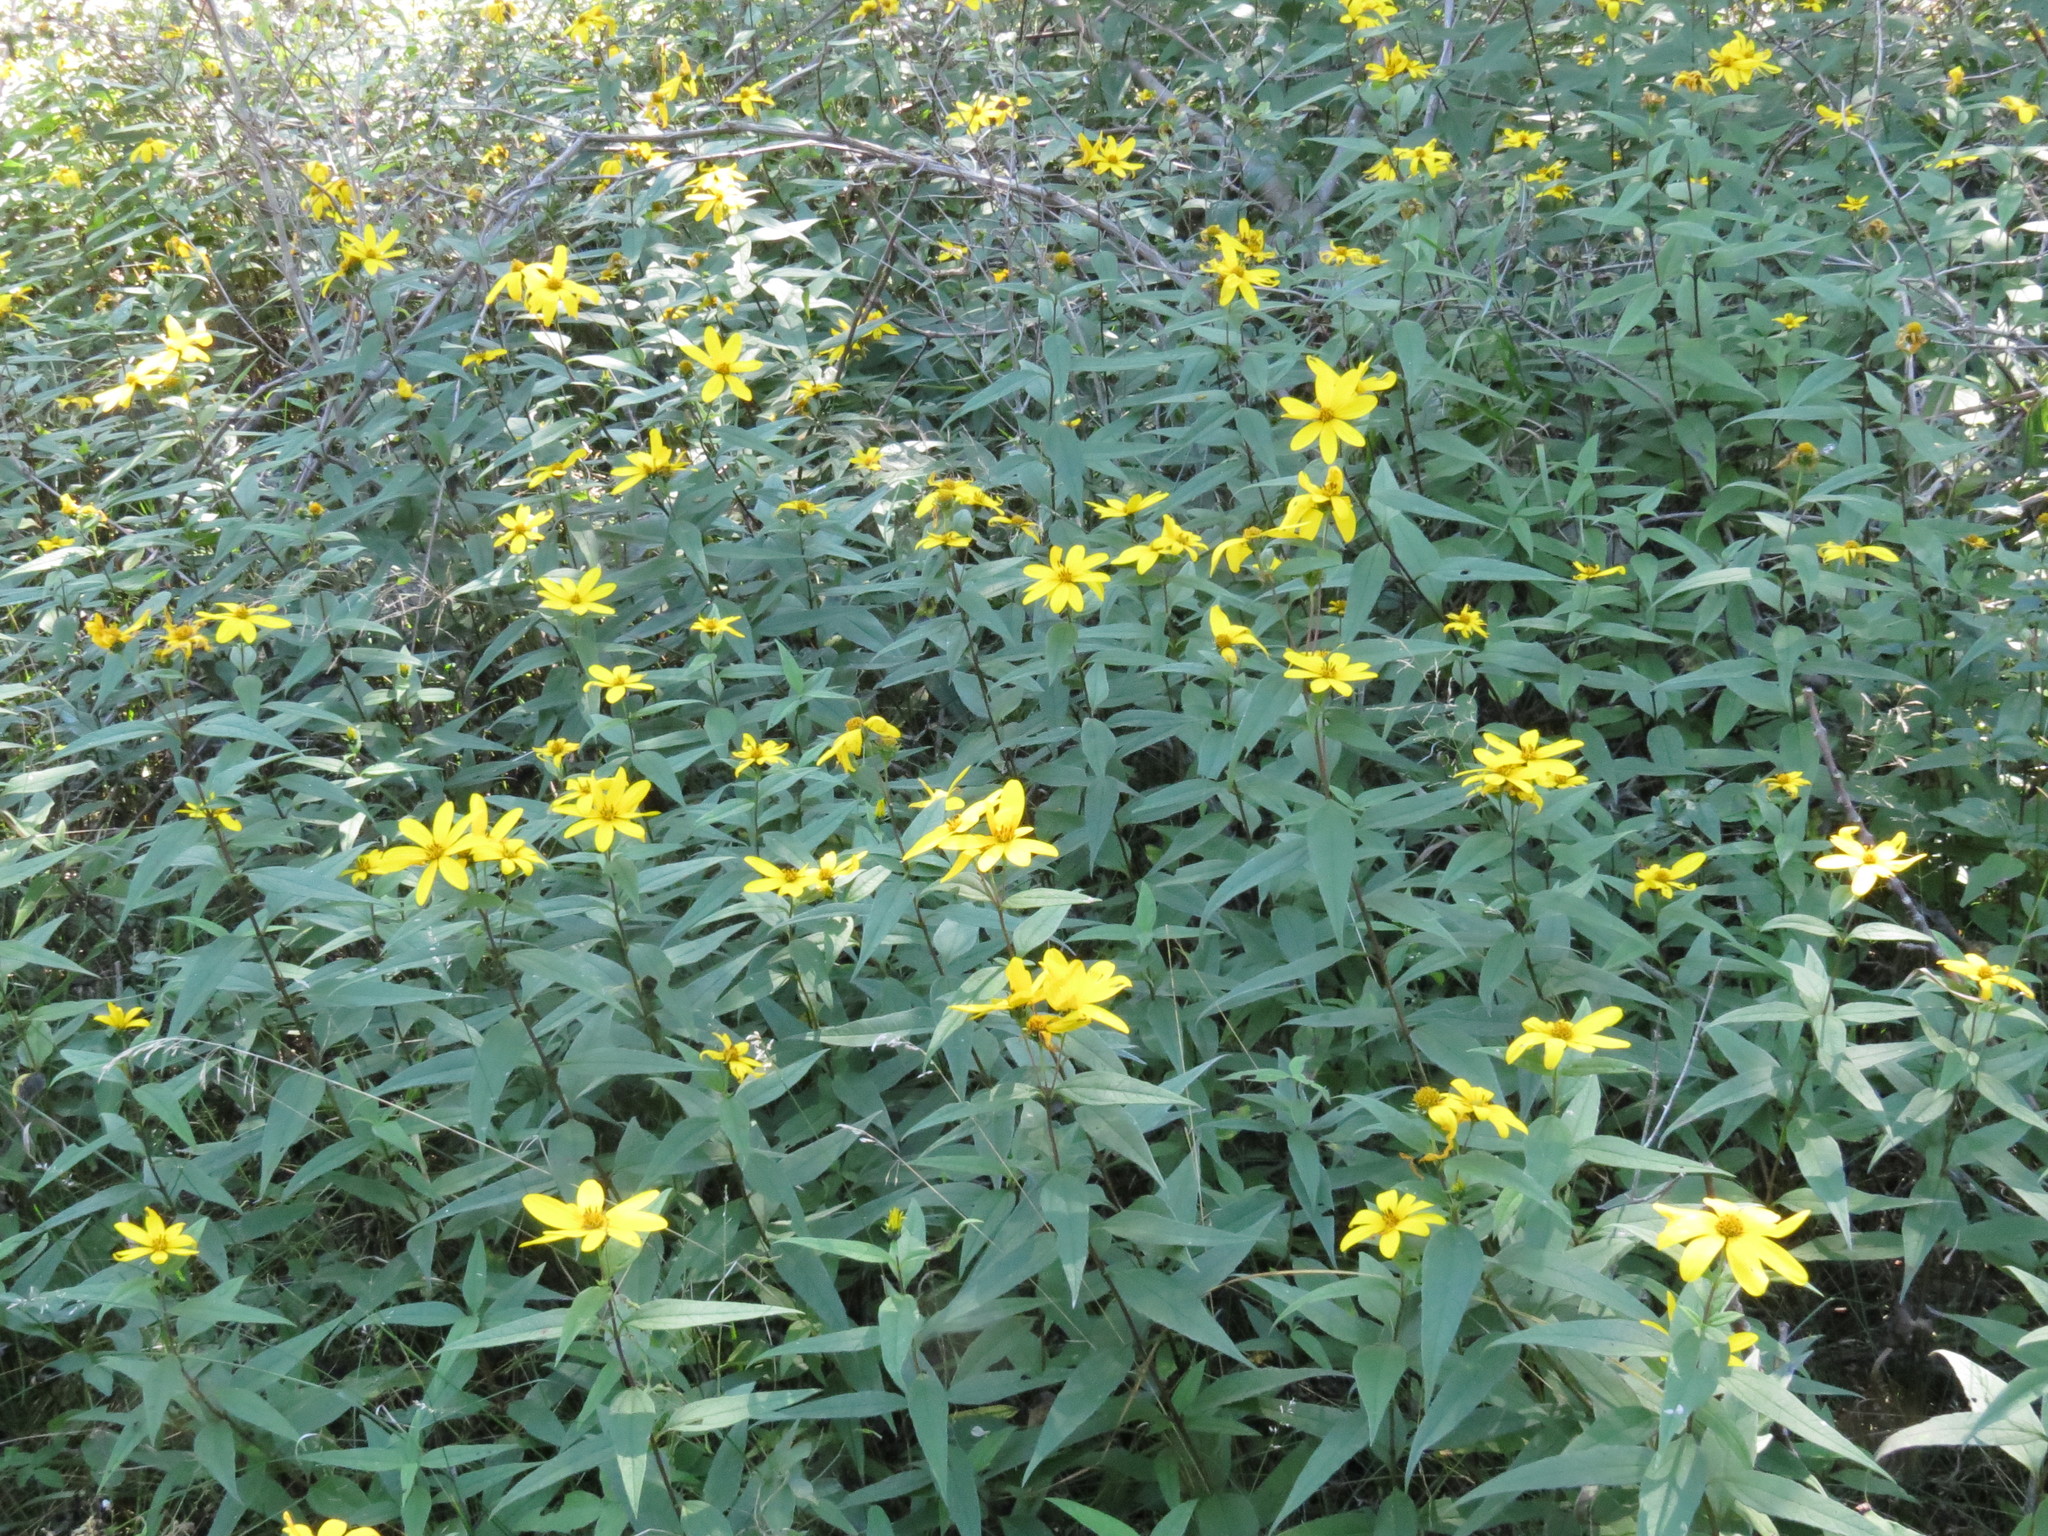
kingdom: Plantae
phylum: Tracheophyta
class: Magnoliopsida
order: Asterales
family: Asteraceae
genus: Helianthus
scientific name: Helianthus divaricatus
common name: Divergent sunflower
